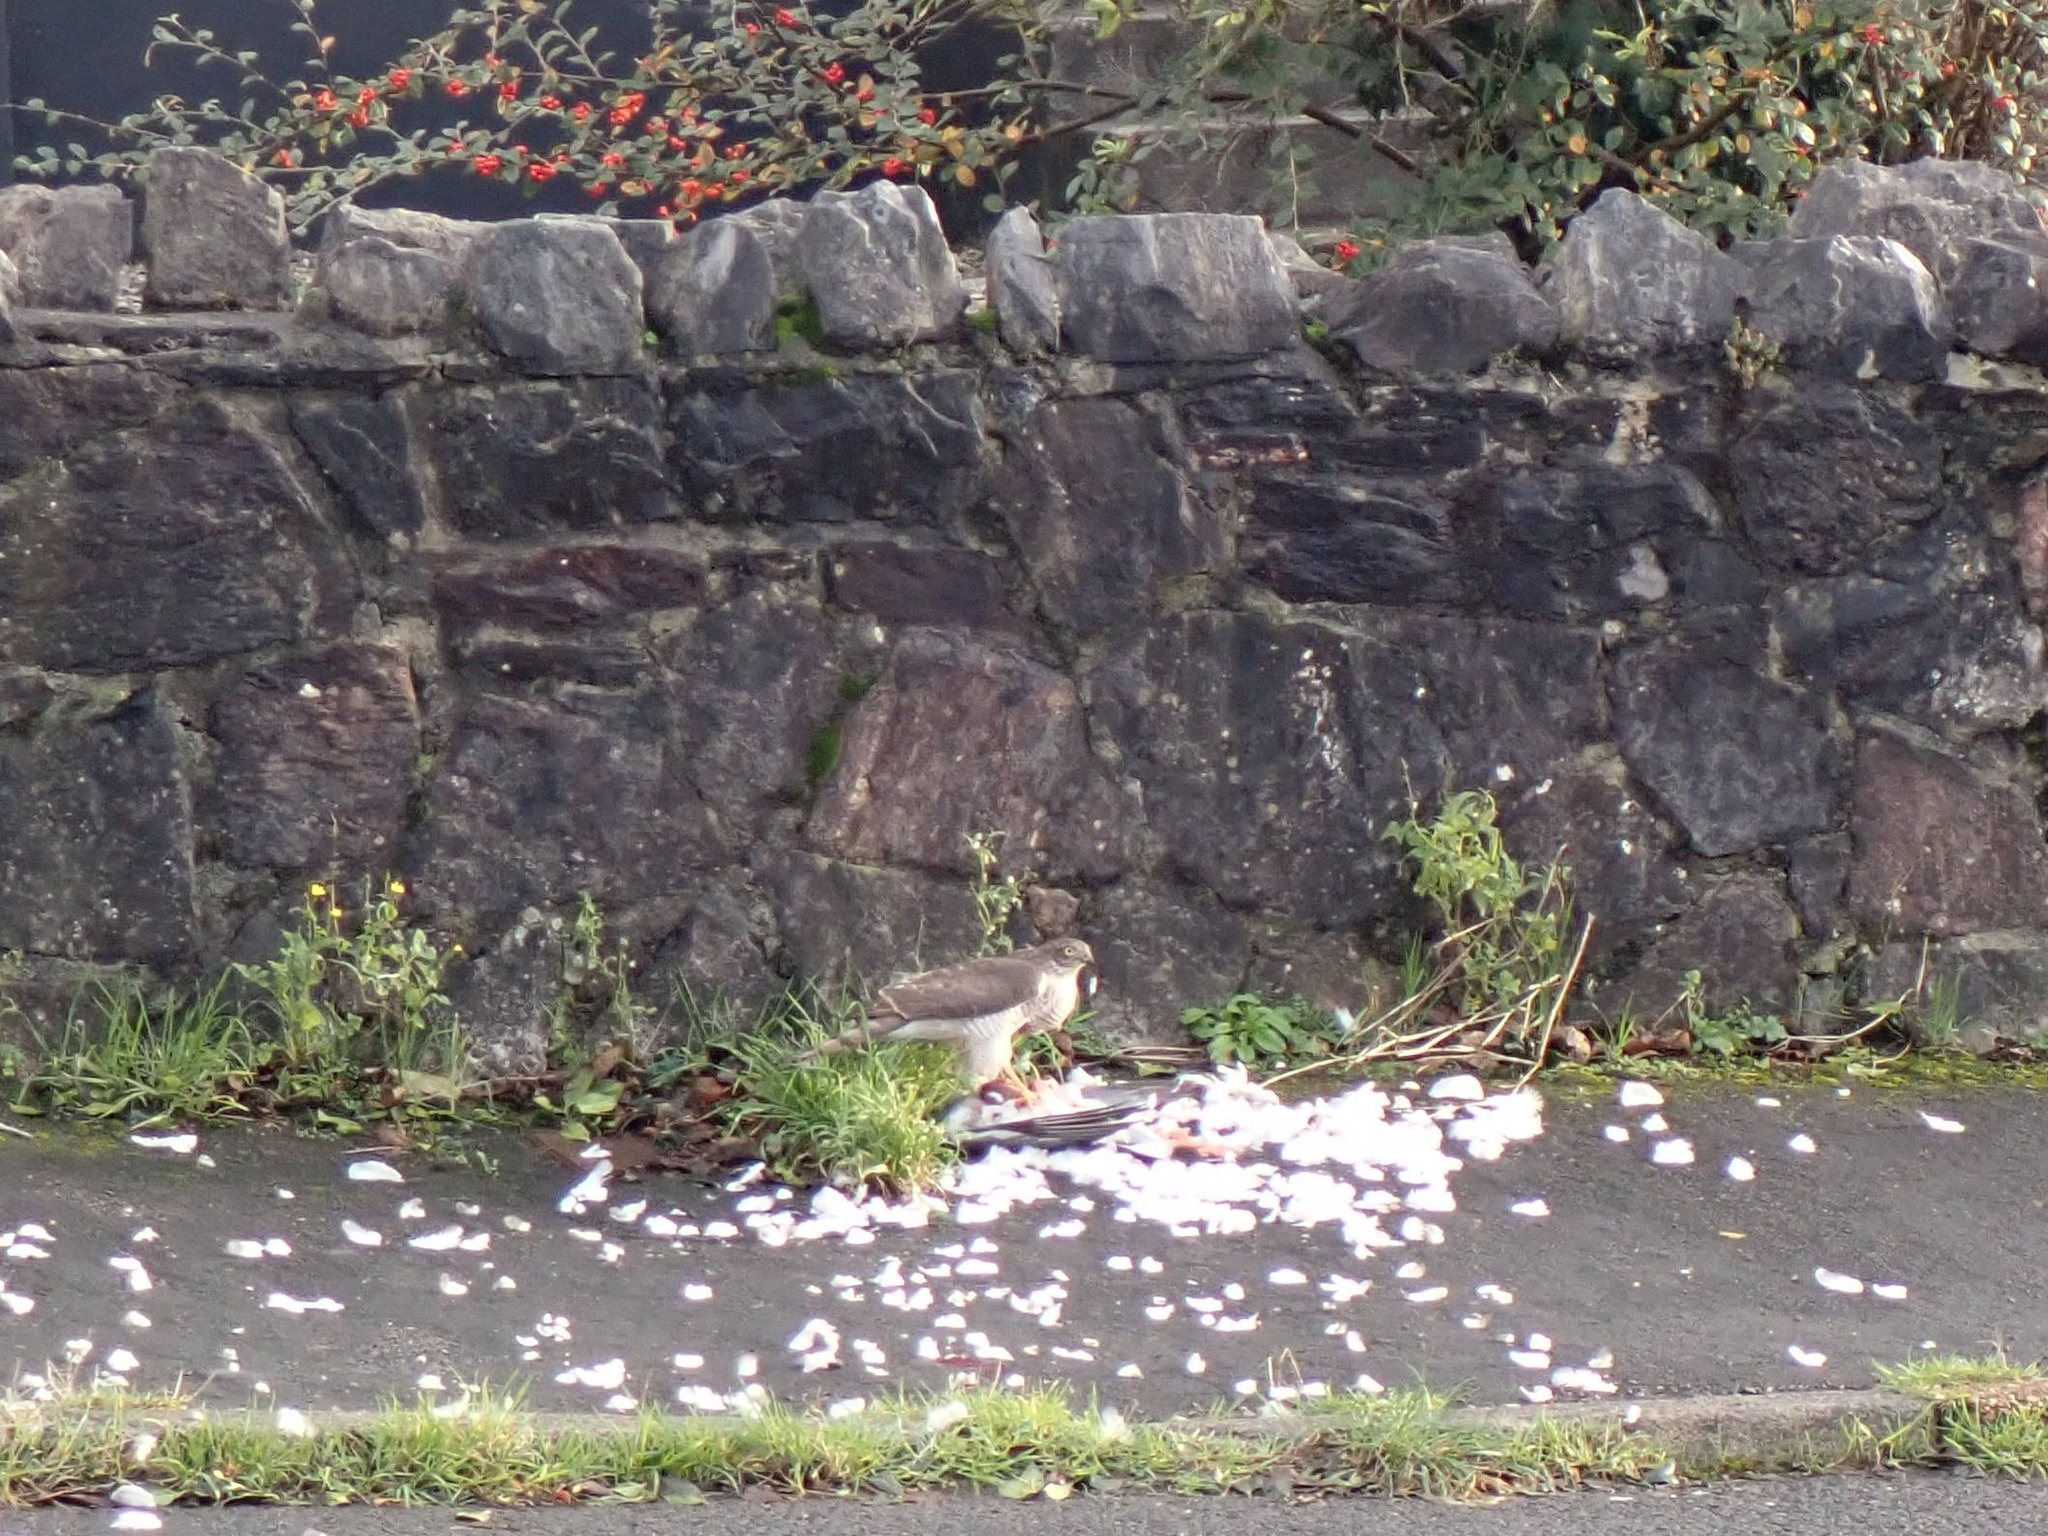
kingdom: Animalia
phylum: Chordata
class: Aves
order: Accipitriformes
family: Accipitridae
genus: Accipiter
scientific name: Accipiter nisus
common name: Eurasian sparrowhawk
